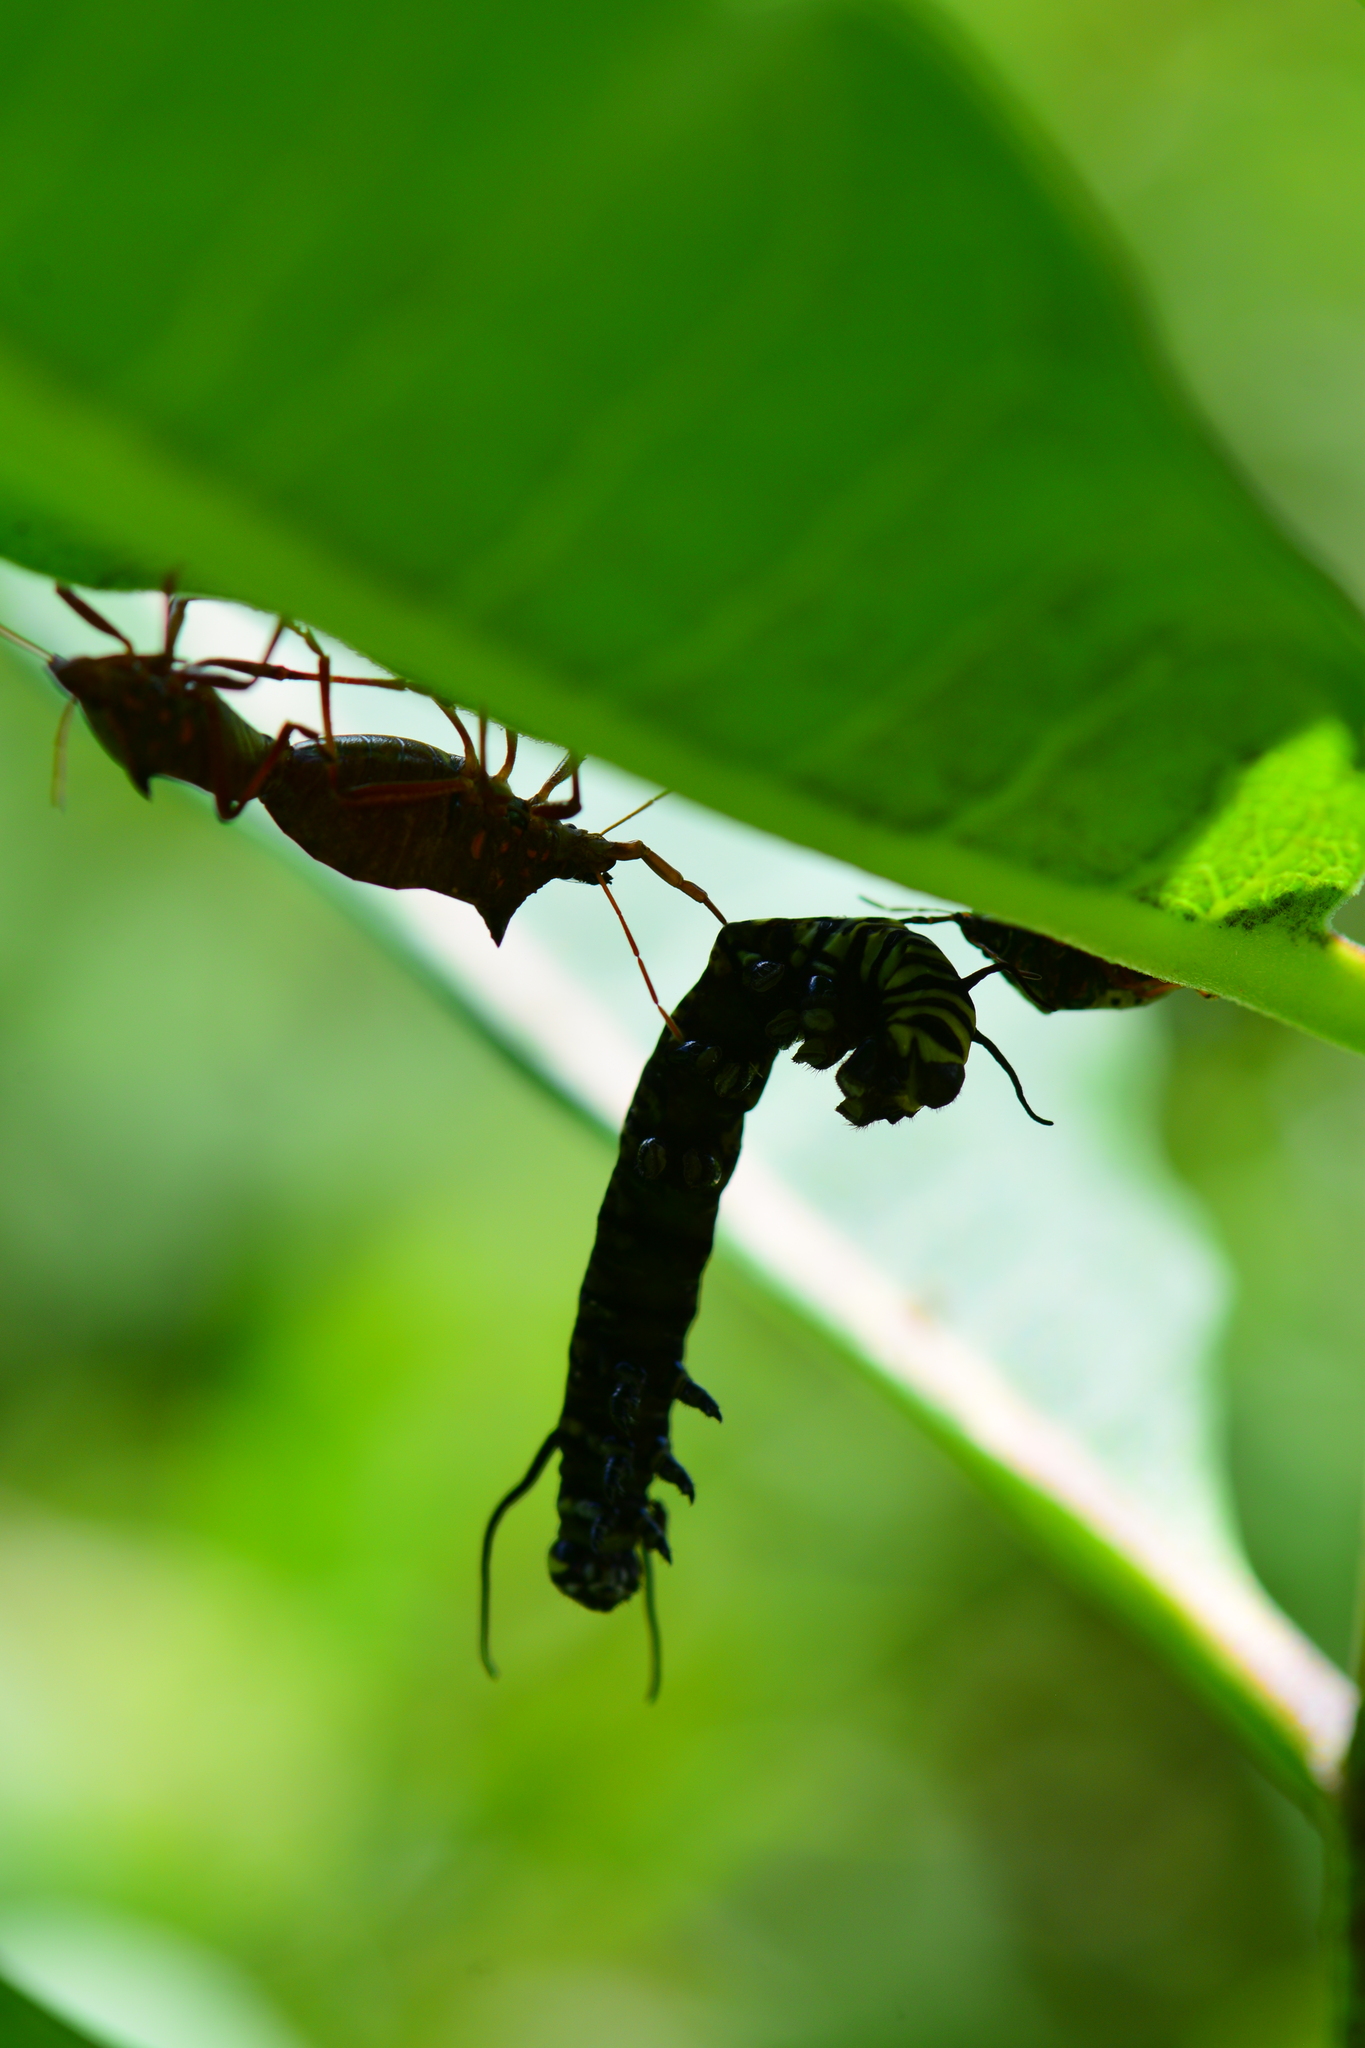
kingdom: Animalia
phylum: Arthropoda
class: Insecta
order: Hemiptera
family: Pentatomidae
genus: Stiretrus
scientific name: Stiretrus anchorago
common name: Anchor stink bug
